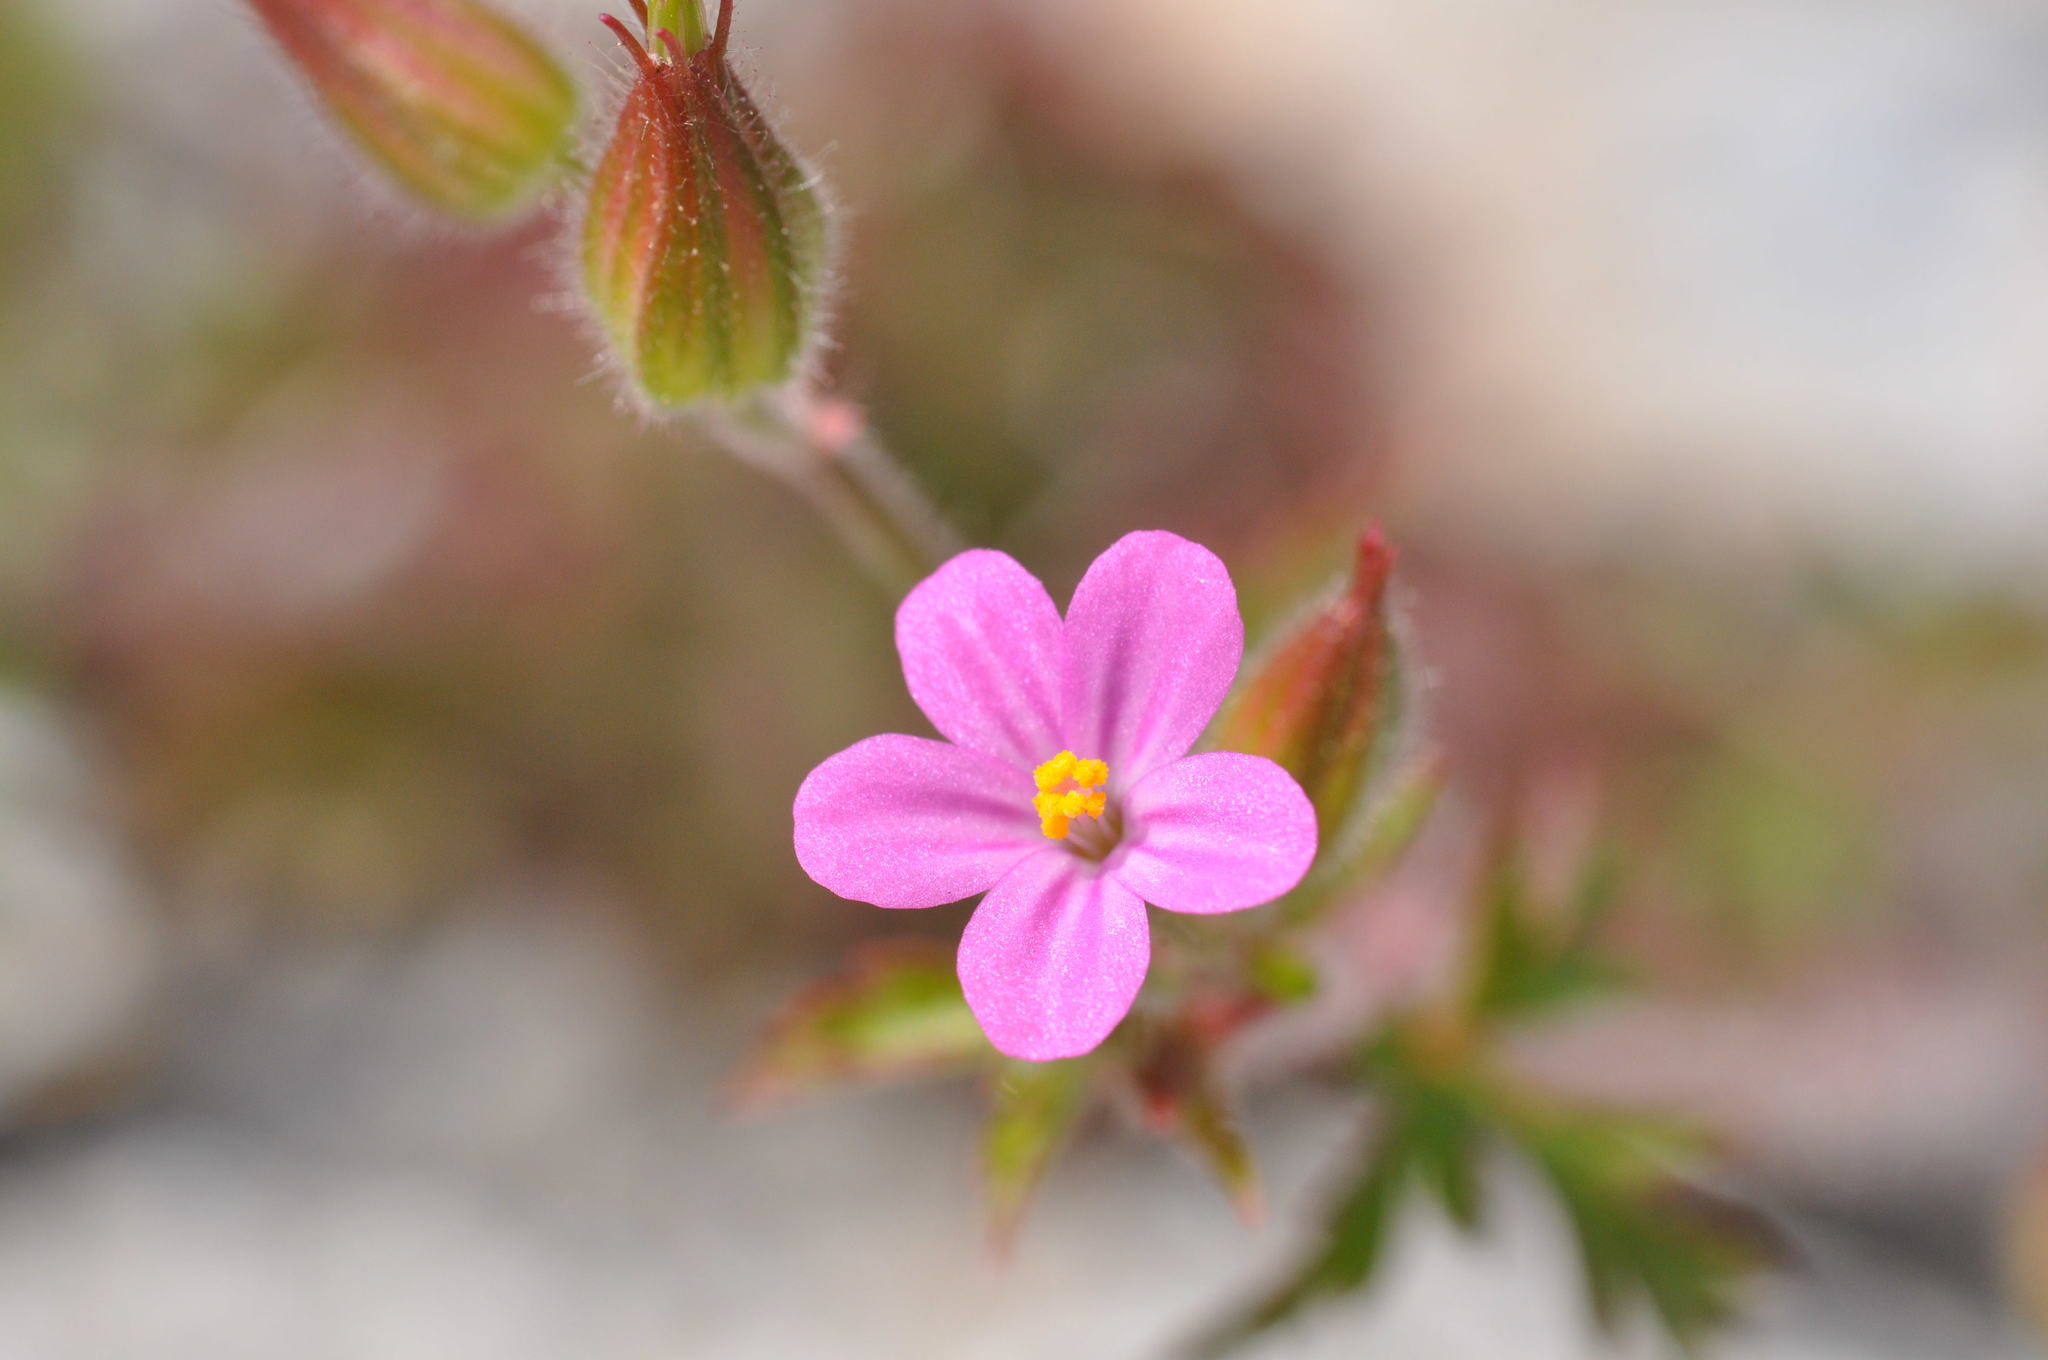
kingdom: Plantae
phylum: Tracheophyta
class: Magnoliopsida
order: Geraniales
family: Geraniaceae
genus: Geranium
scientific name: Geranium purpureum
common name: Little-robin
